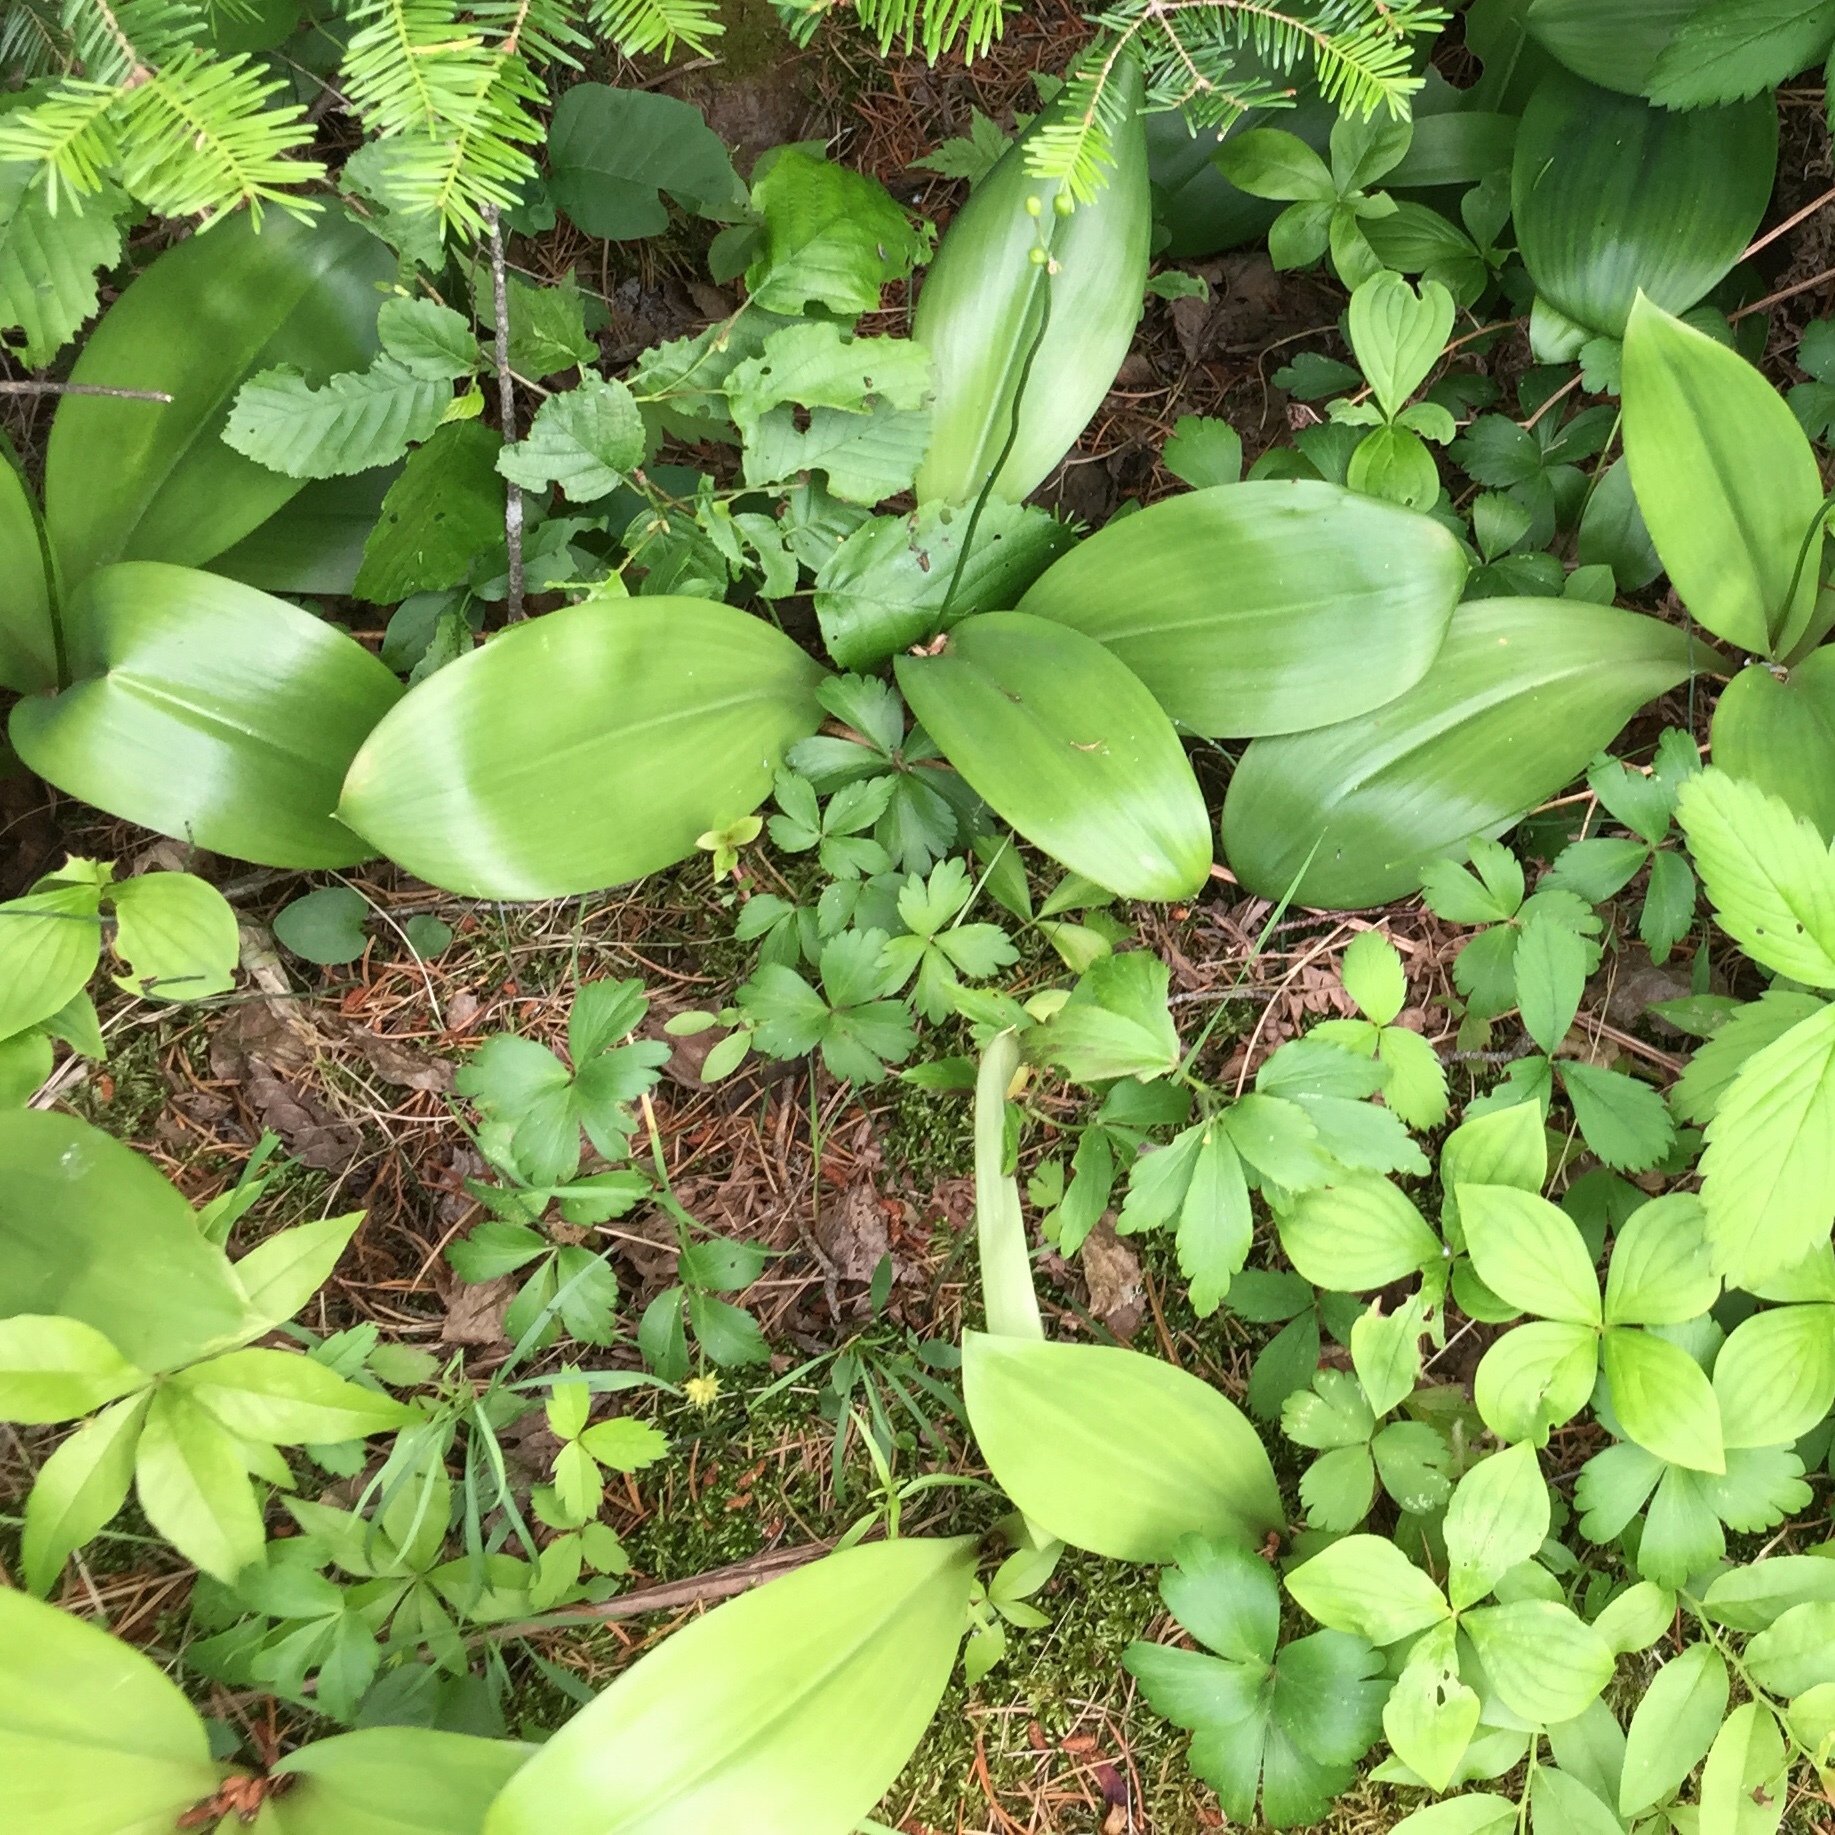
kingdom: Plantae
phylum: Tracheophyta
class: Liliopsida
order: Liliales
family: Liliaceae
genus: Clintonia
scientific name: Clintonia borealis
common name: Yellow clintonia
